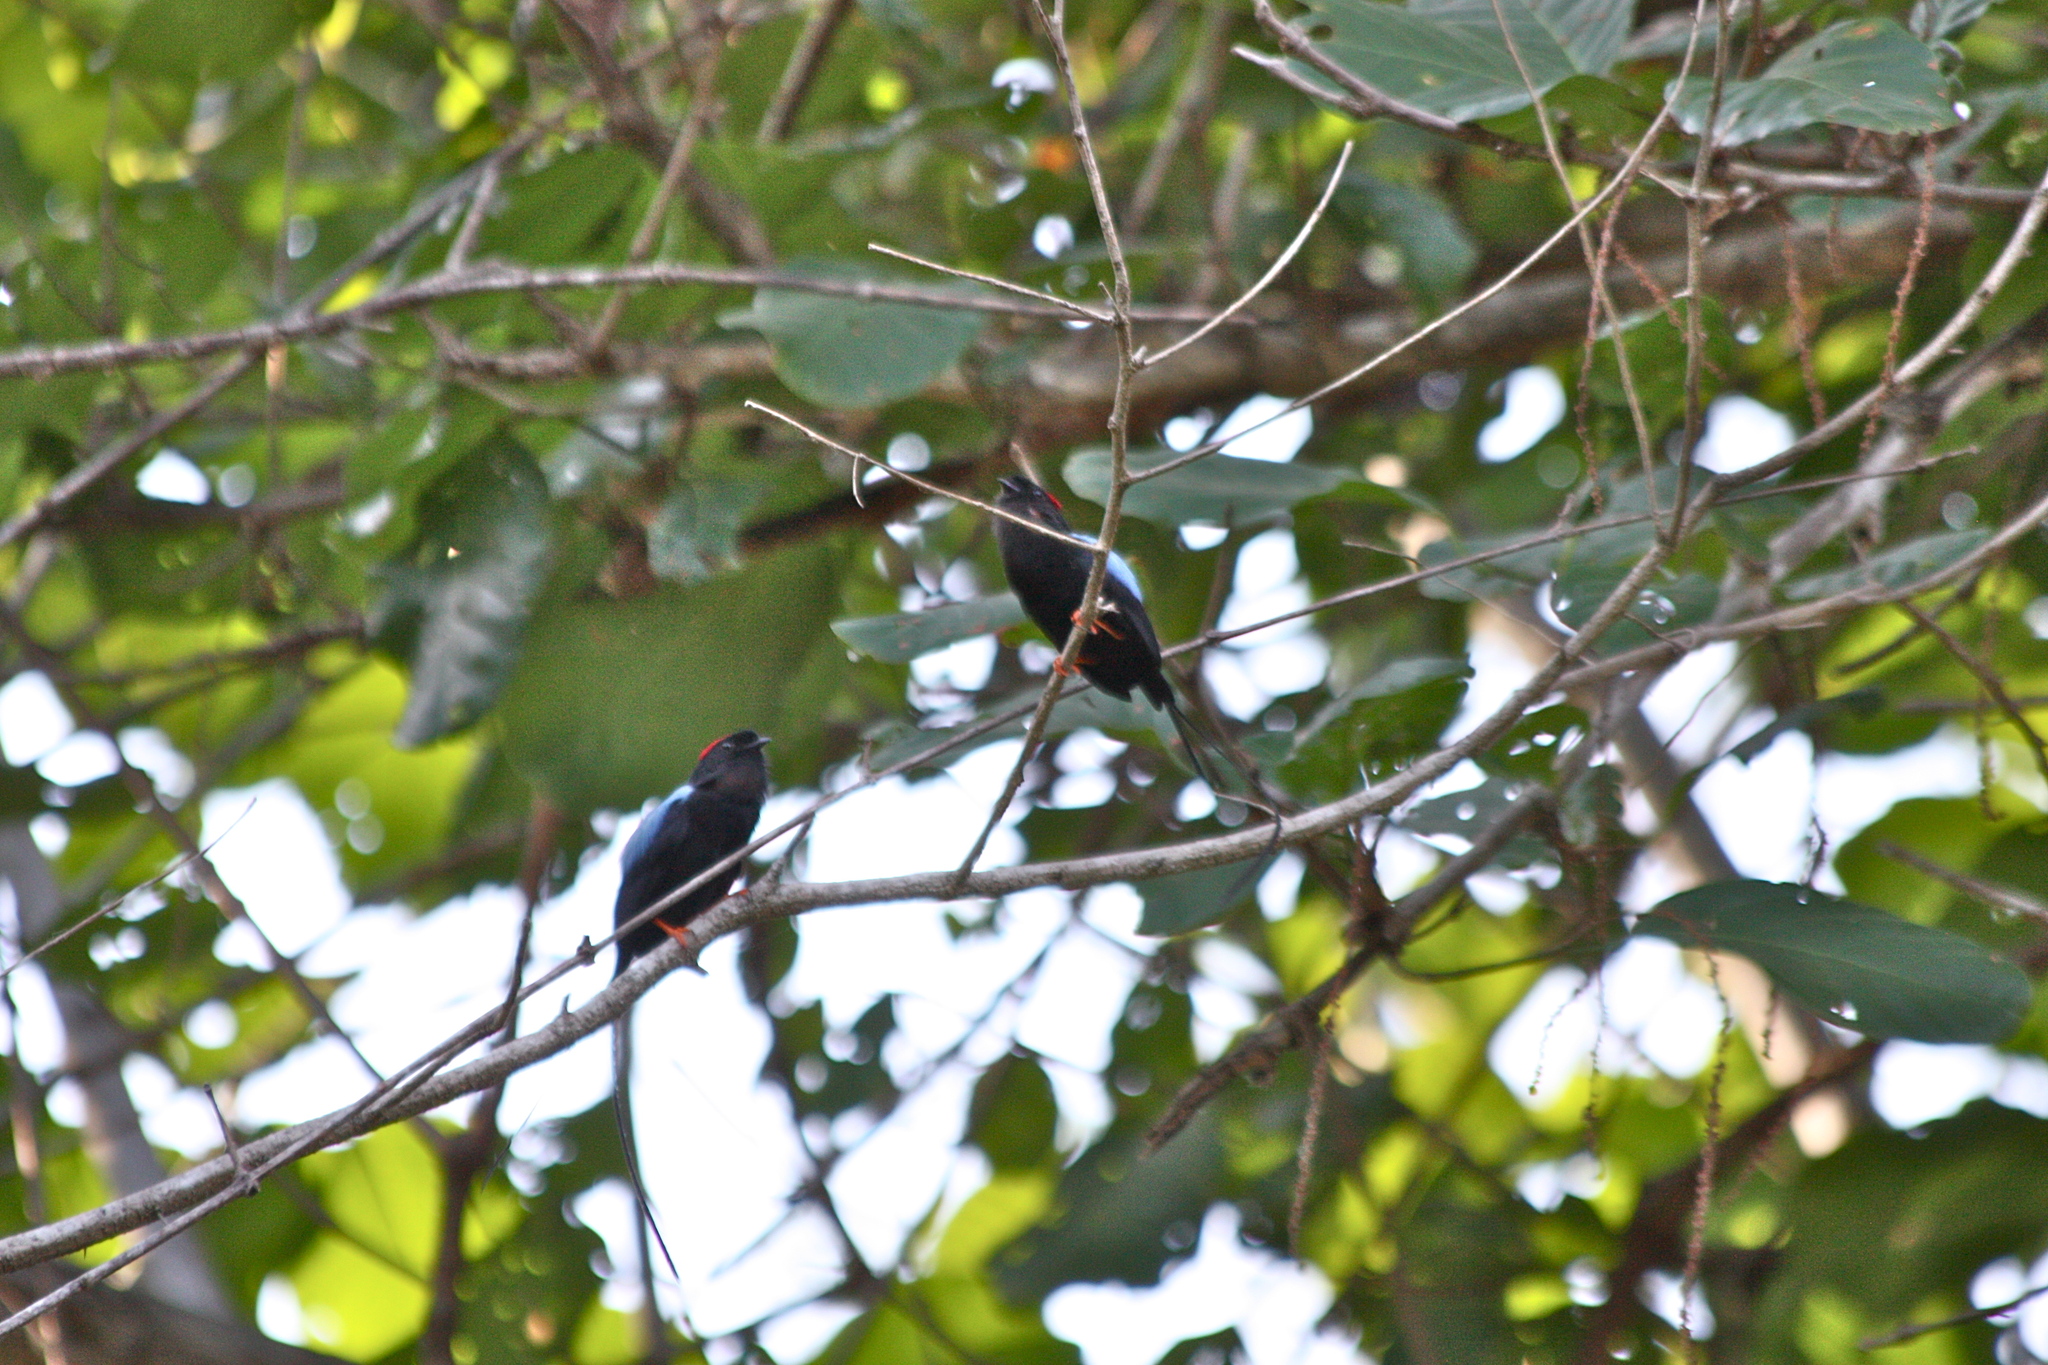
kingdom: Animalia
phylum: Chordata
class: Aves
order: Passeriformes
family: Pipridae
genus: Chiroxiphia
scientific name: Chiroxiphia linearis
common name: Long-tailed manakin
